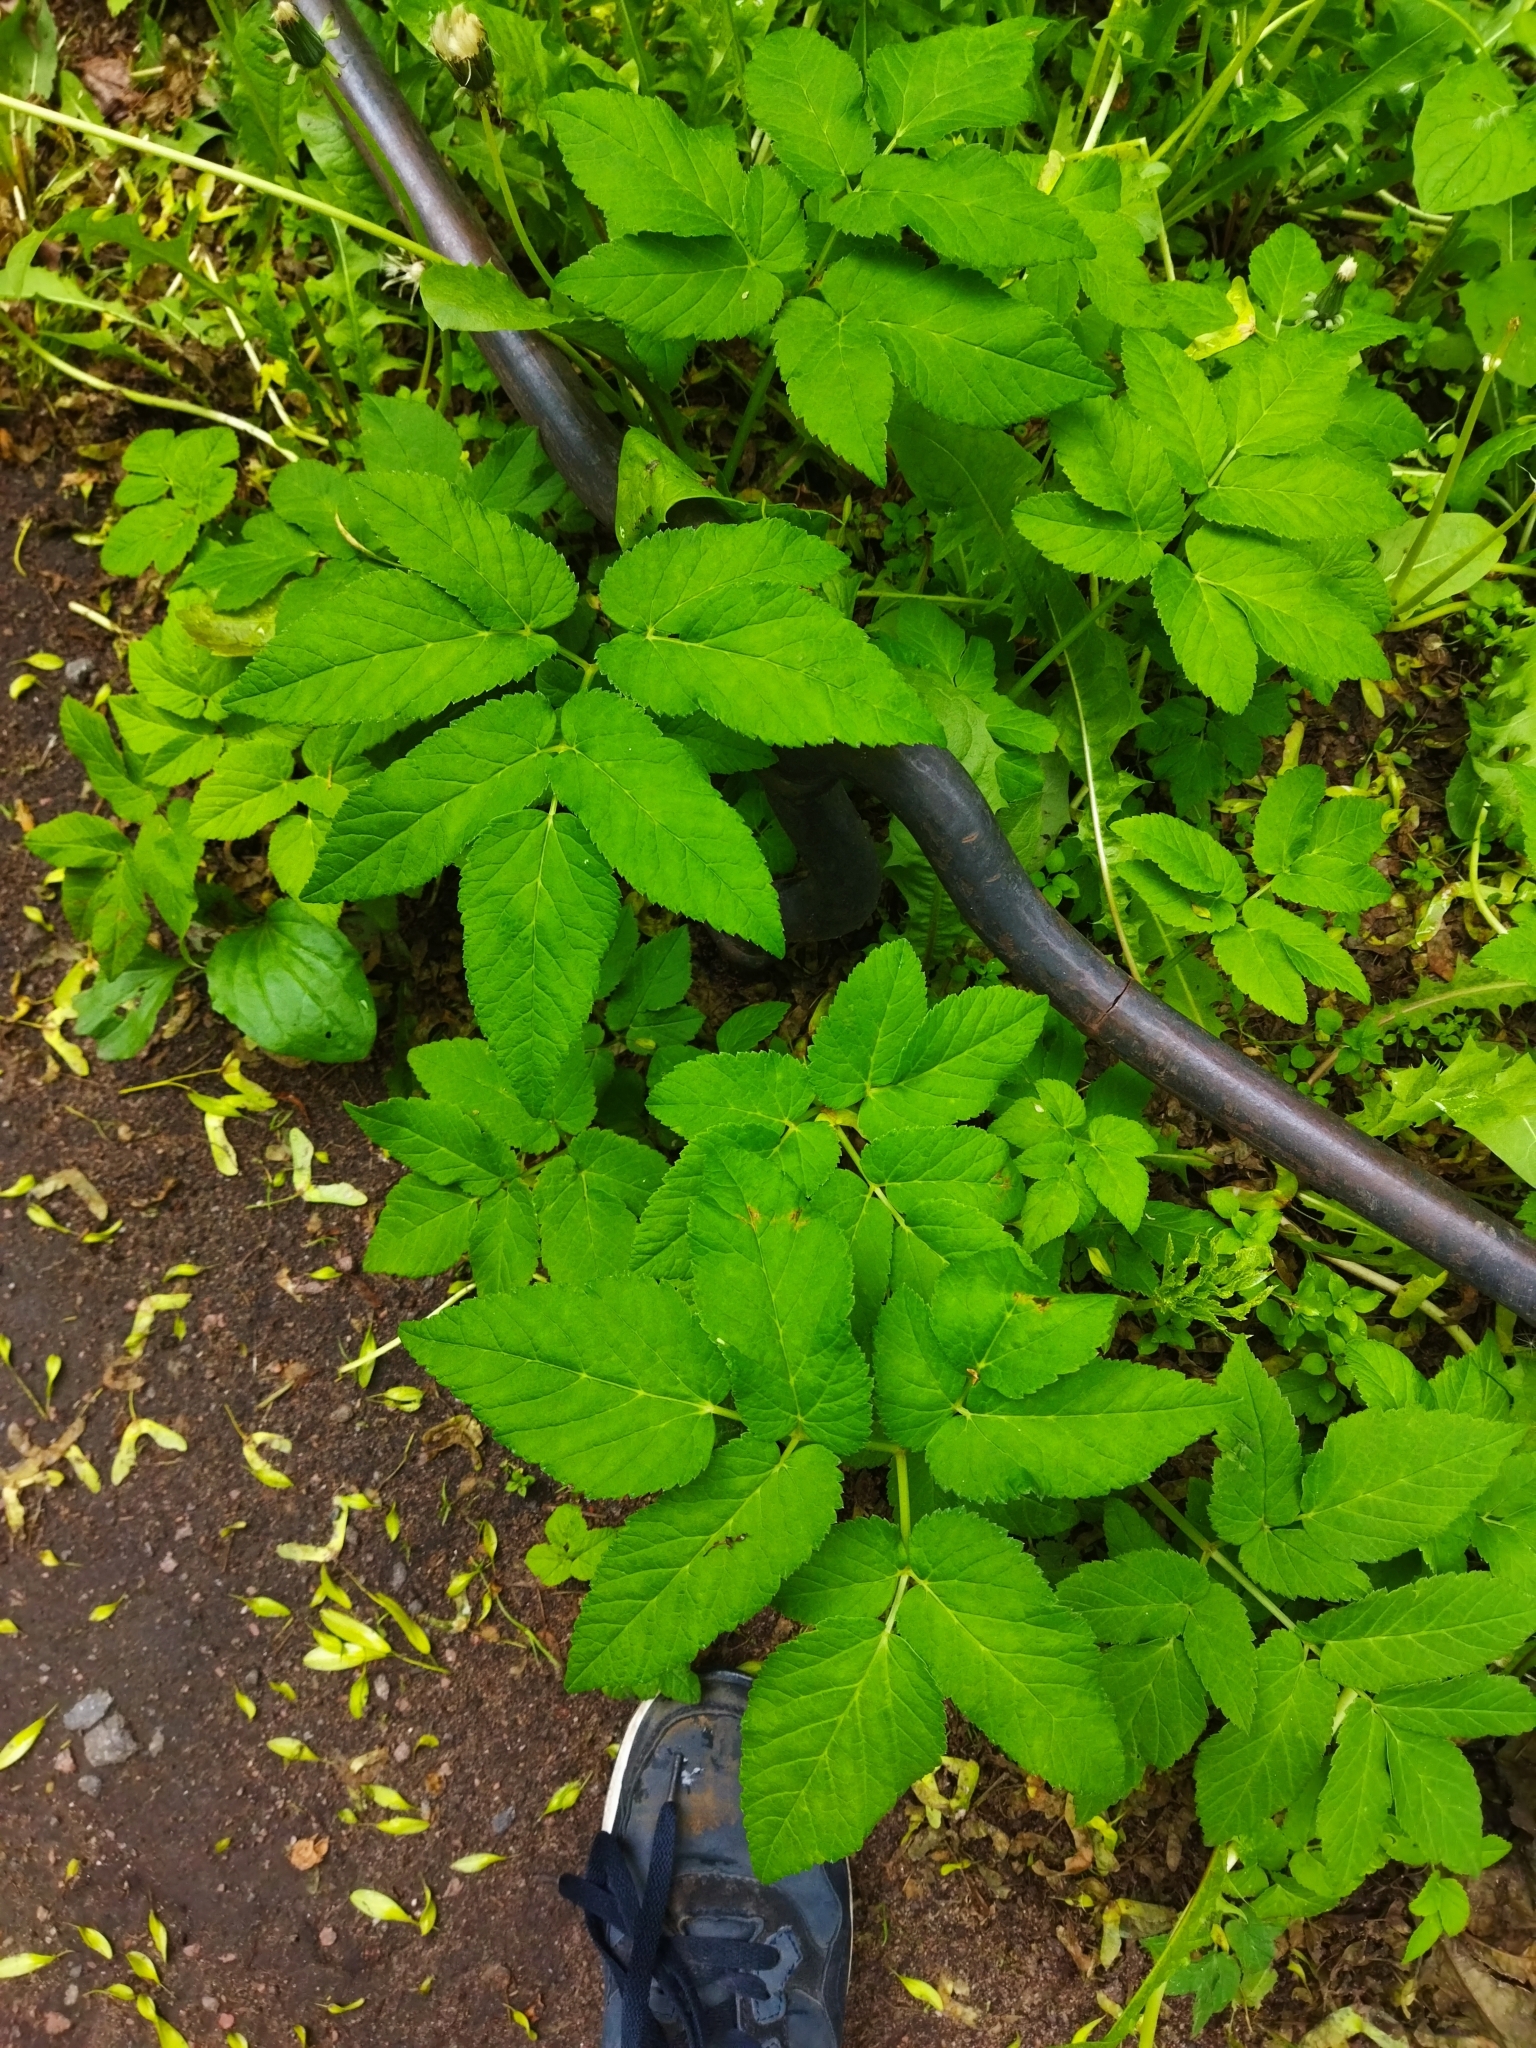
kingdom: Plantae
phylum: Tracheophyta
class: Magnoliopsida
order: Apiales
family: Apiaceae
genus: Aegopodium
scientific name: Aegopodium podagraria
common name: Ground-elder
